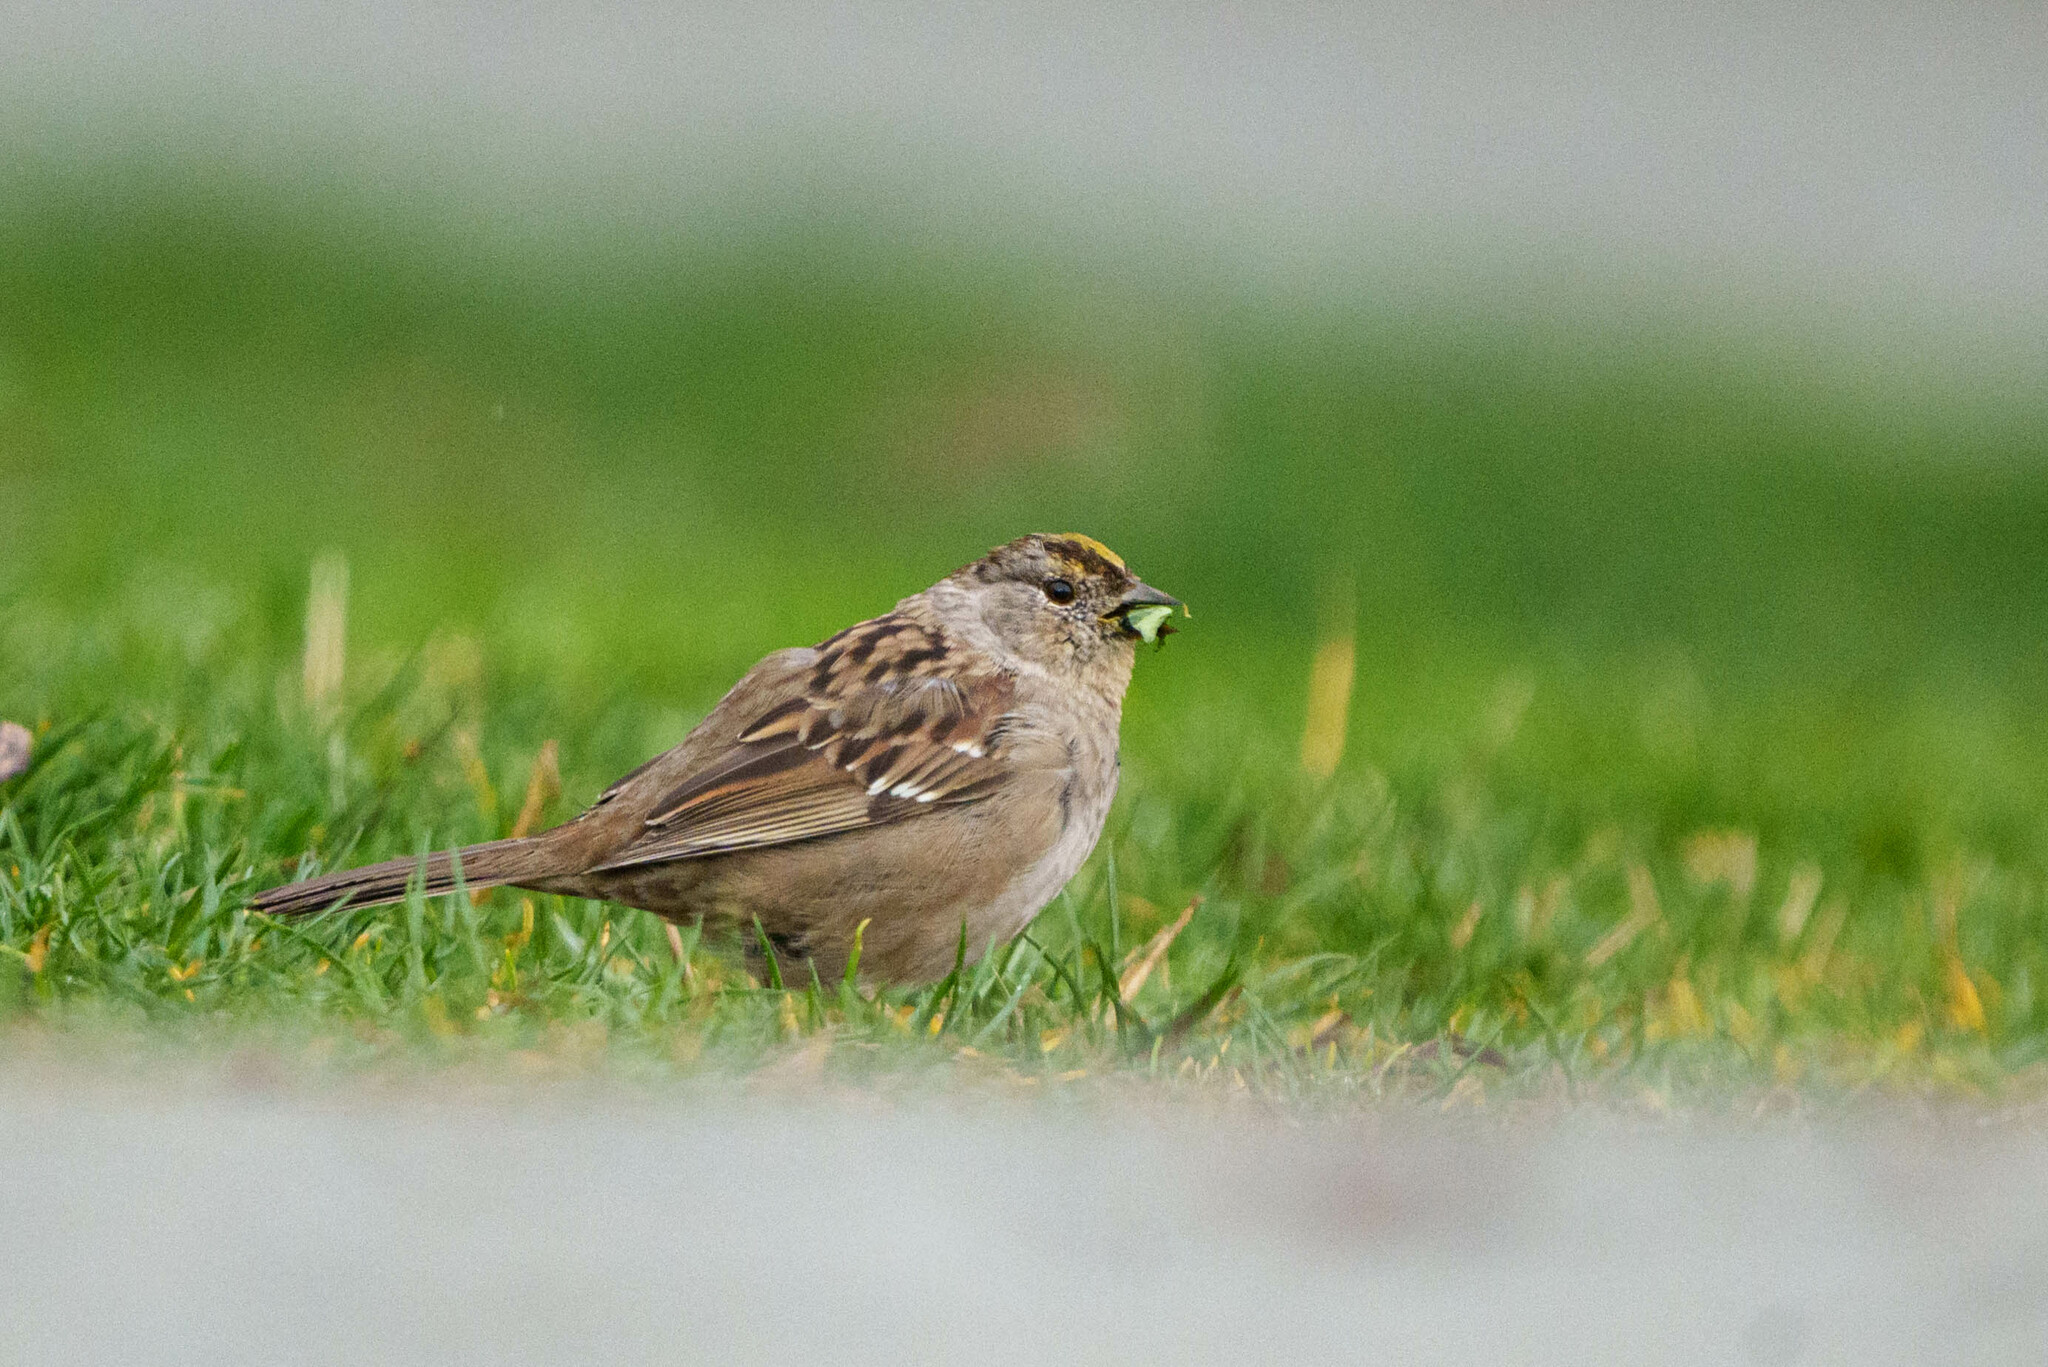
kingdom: Animalia
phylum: Chordata
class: Aves
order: Passeriformes
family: Passerellidae
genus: Zonotrichia
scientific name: Zonotrichia atricapilla
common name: Golden-crowned sparrow
